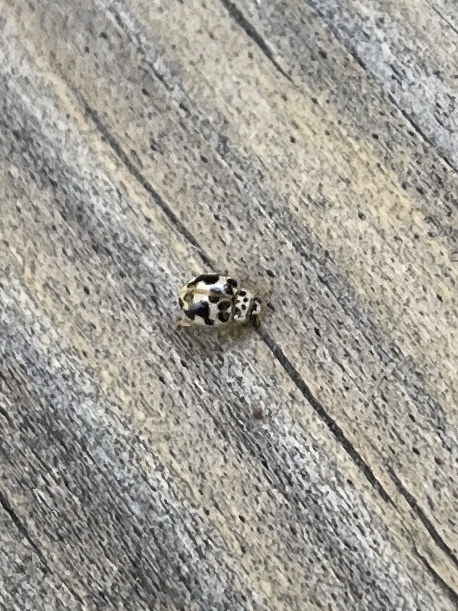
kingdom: Animalia
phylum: Arthropoda
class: Insecta
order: Coleoptera
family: Coccinellidae
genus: Psyllobora
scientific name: Psyllobora vigintimaculata
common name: Ladybird beetle
